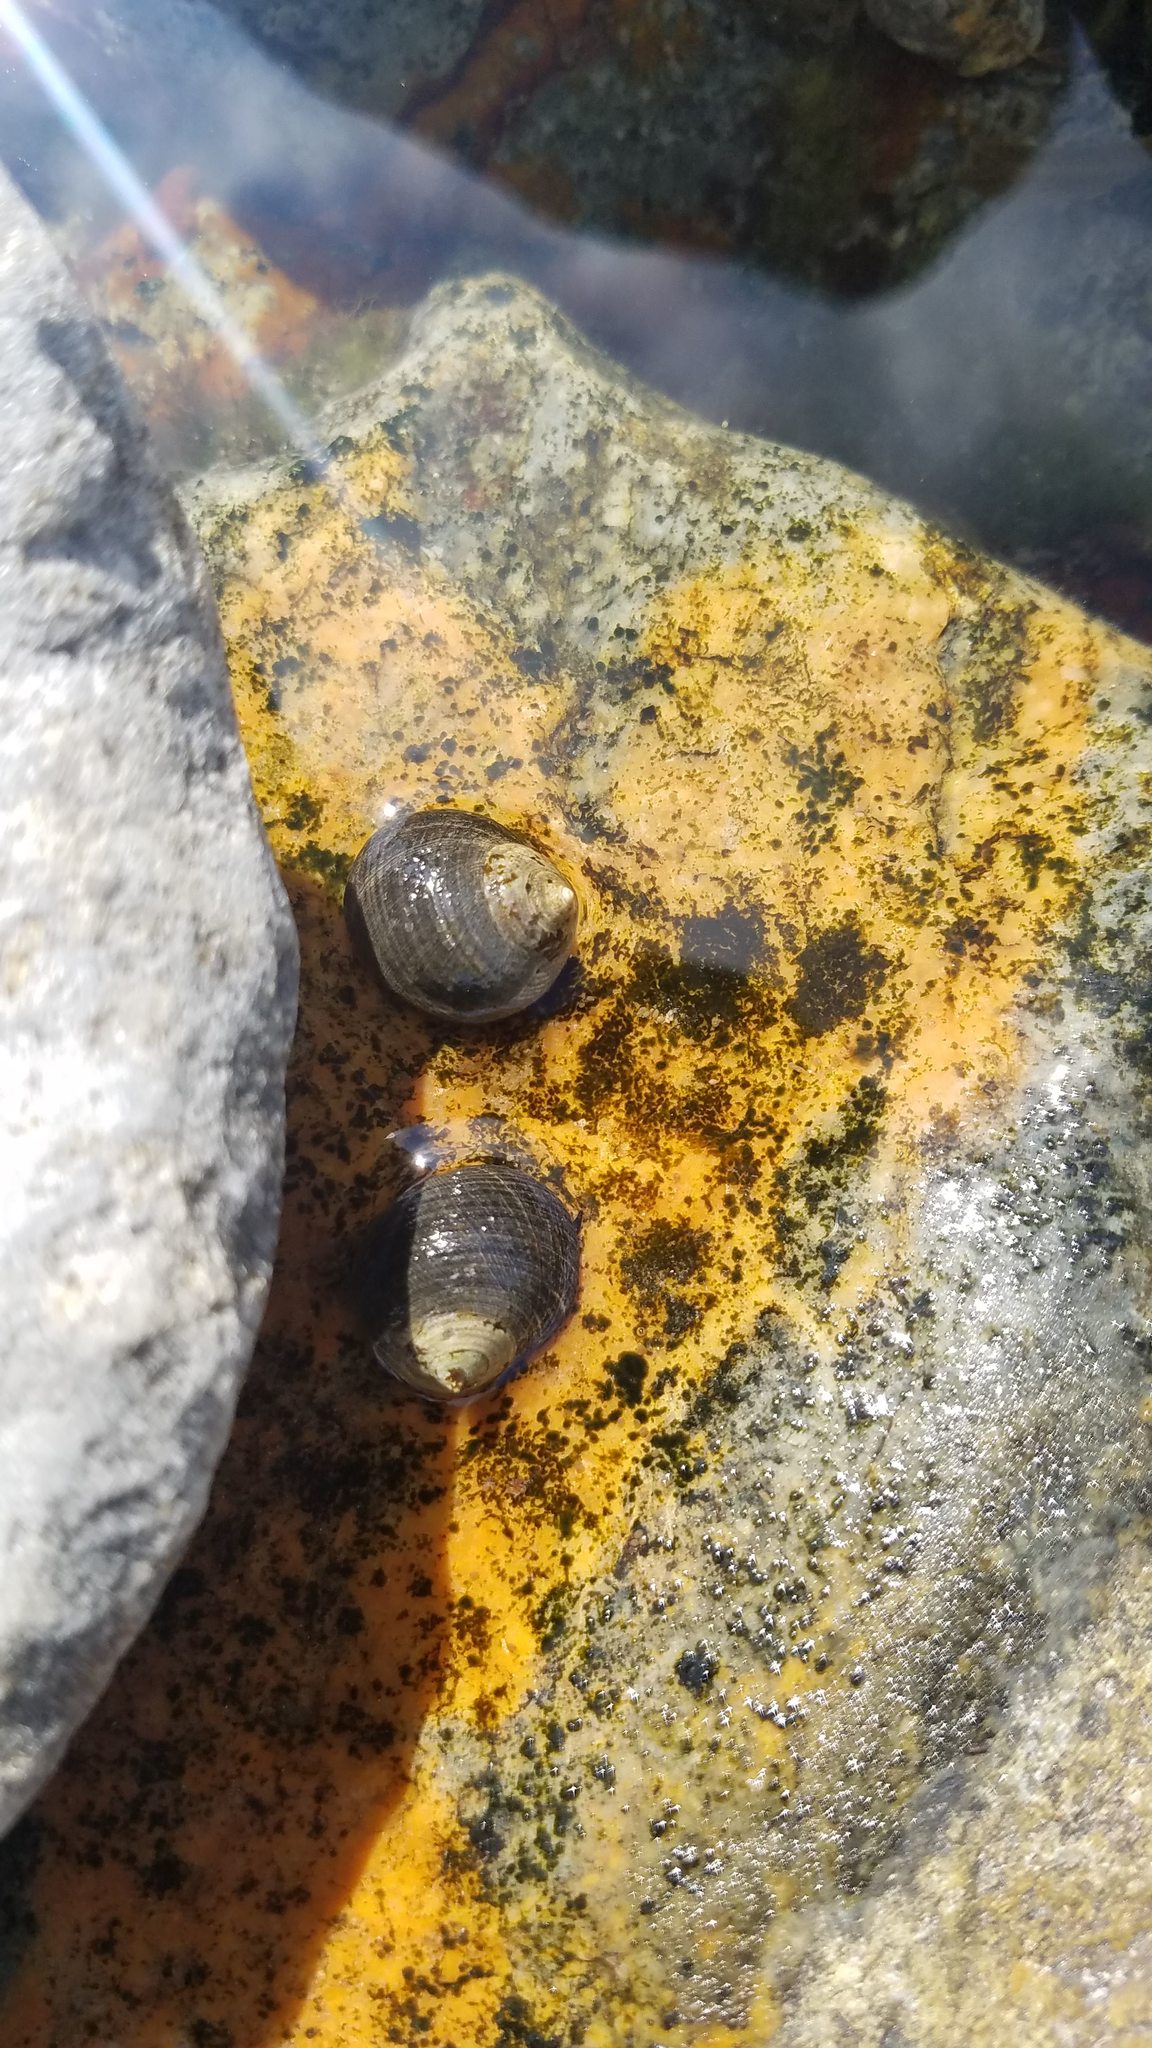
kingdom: Animalia
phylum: Mollusca
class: Gastropoda
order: Littorinimorpha
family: Littorinidae
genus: Littorina
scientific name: Littorina littorea
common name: Common periwinkle
